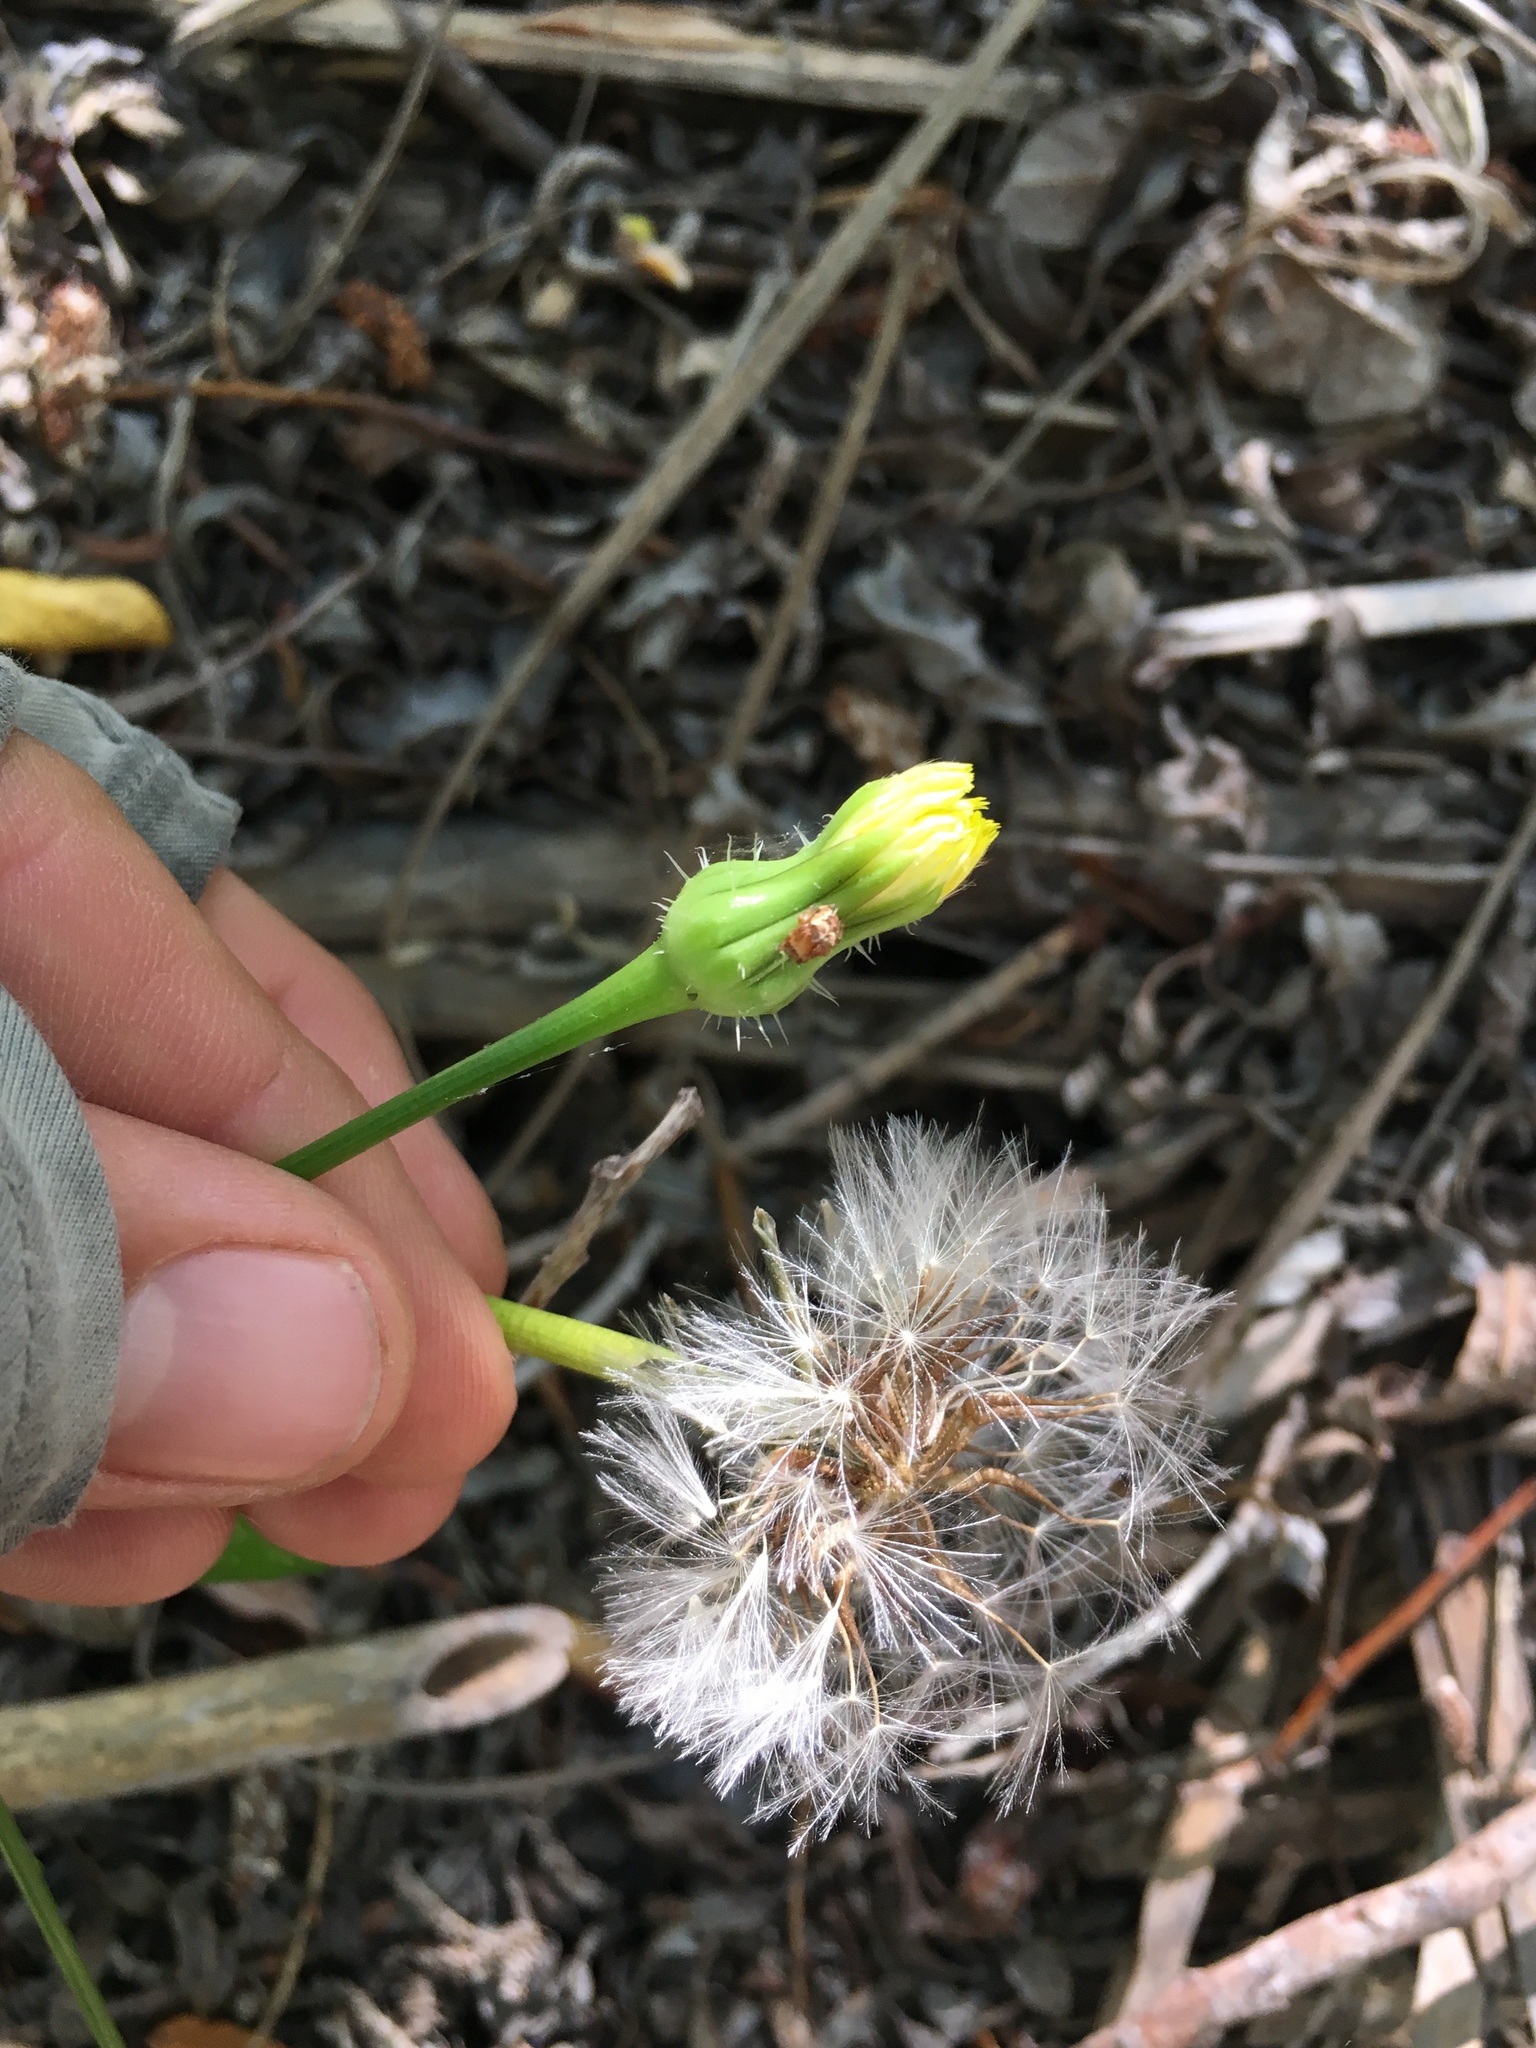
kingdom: Plantae
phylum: Tracheophyta
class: Magnoliopsida
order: Asterales
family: Asteraceae
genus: Urospermum
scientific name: Urospermum picroides
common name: False hawkbit
